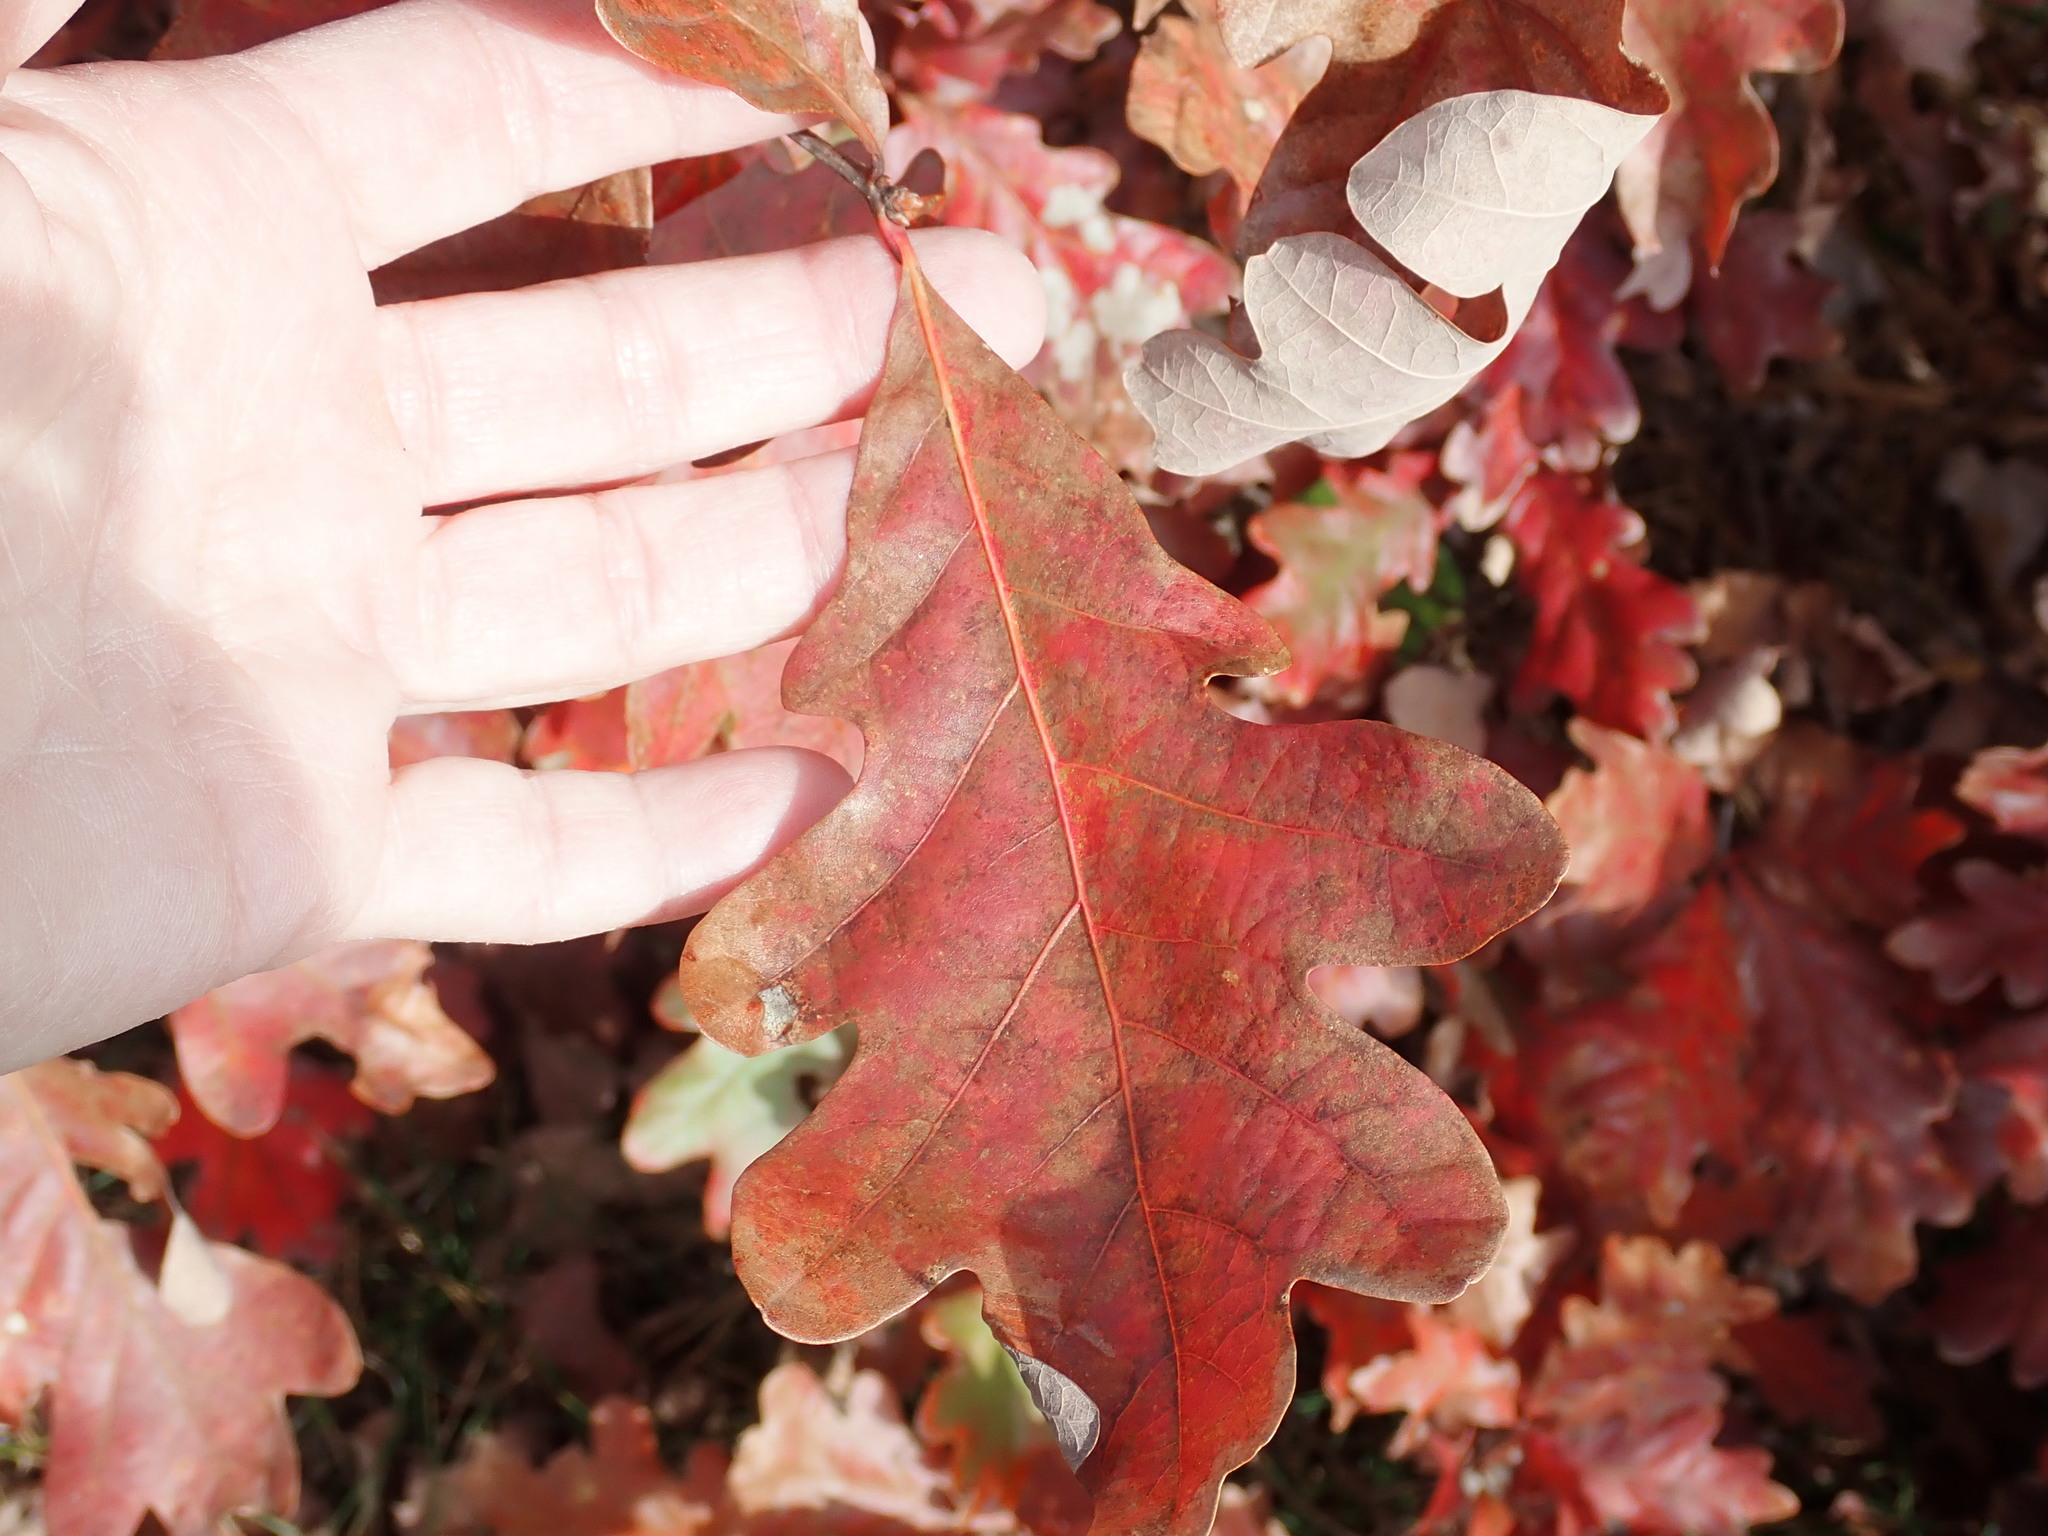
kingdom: Plantae
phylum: Tracheophyta
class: Magnoliopsida
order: Fagales
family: Fagaceae
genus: Quercus
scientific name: Quercus alba
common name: White oak
